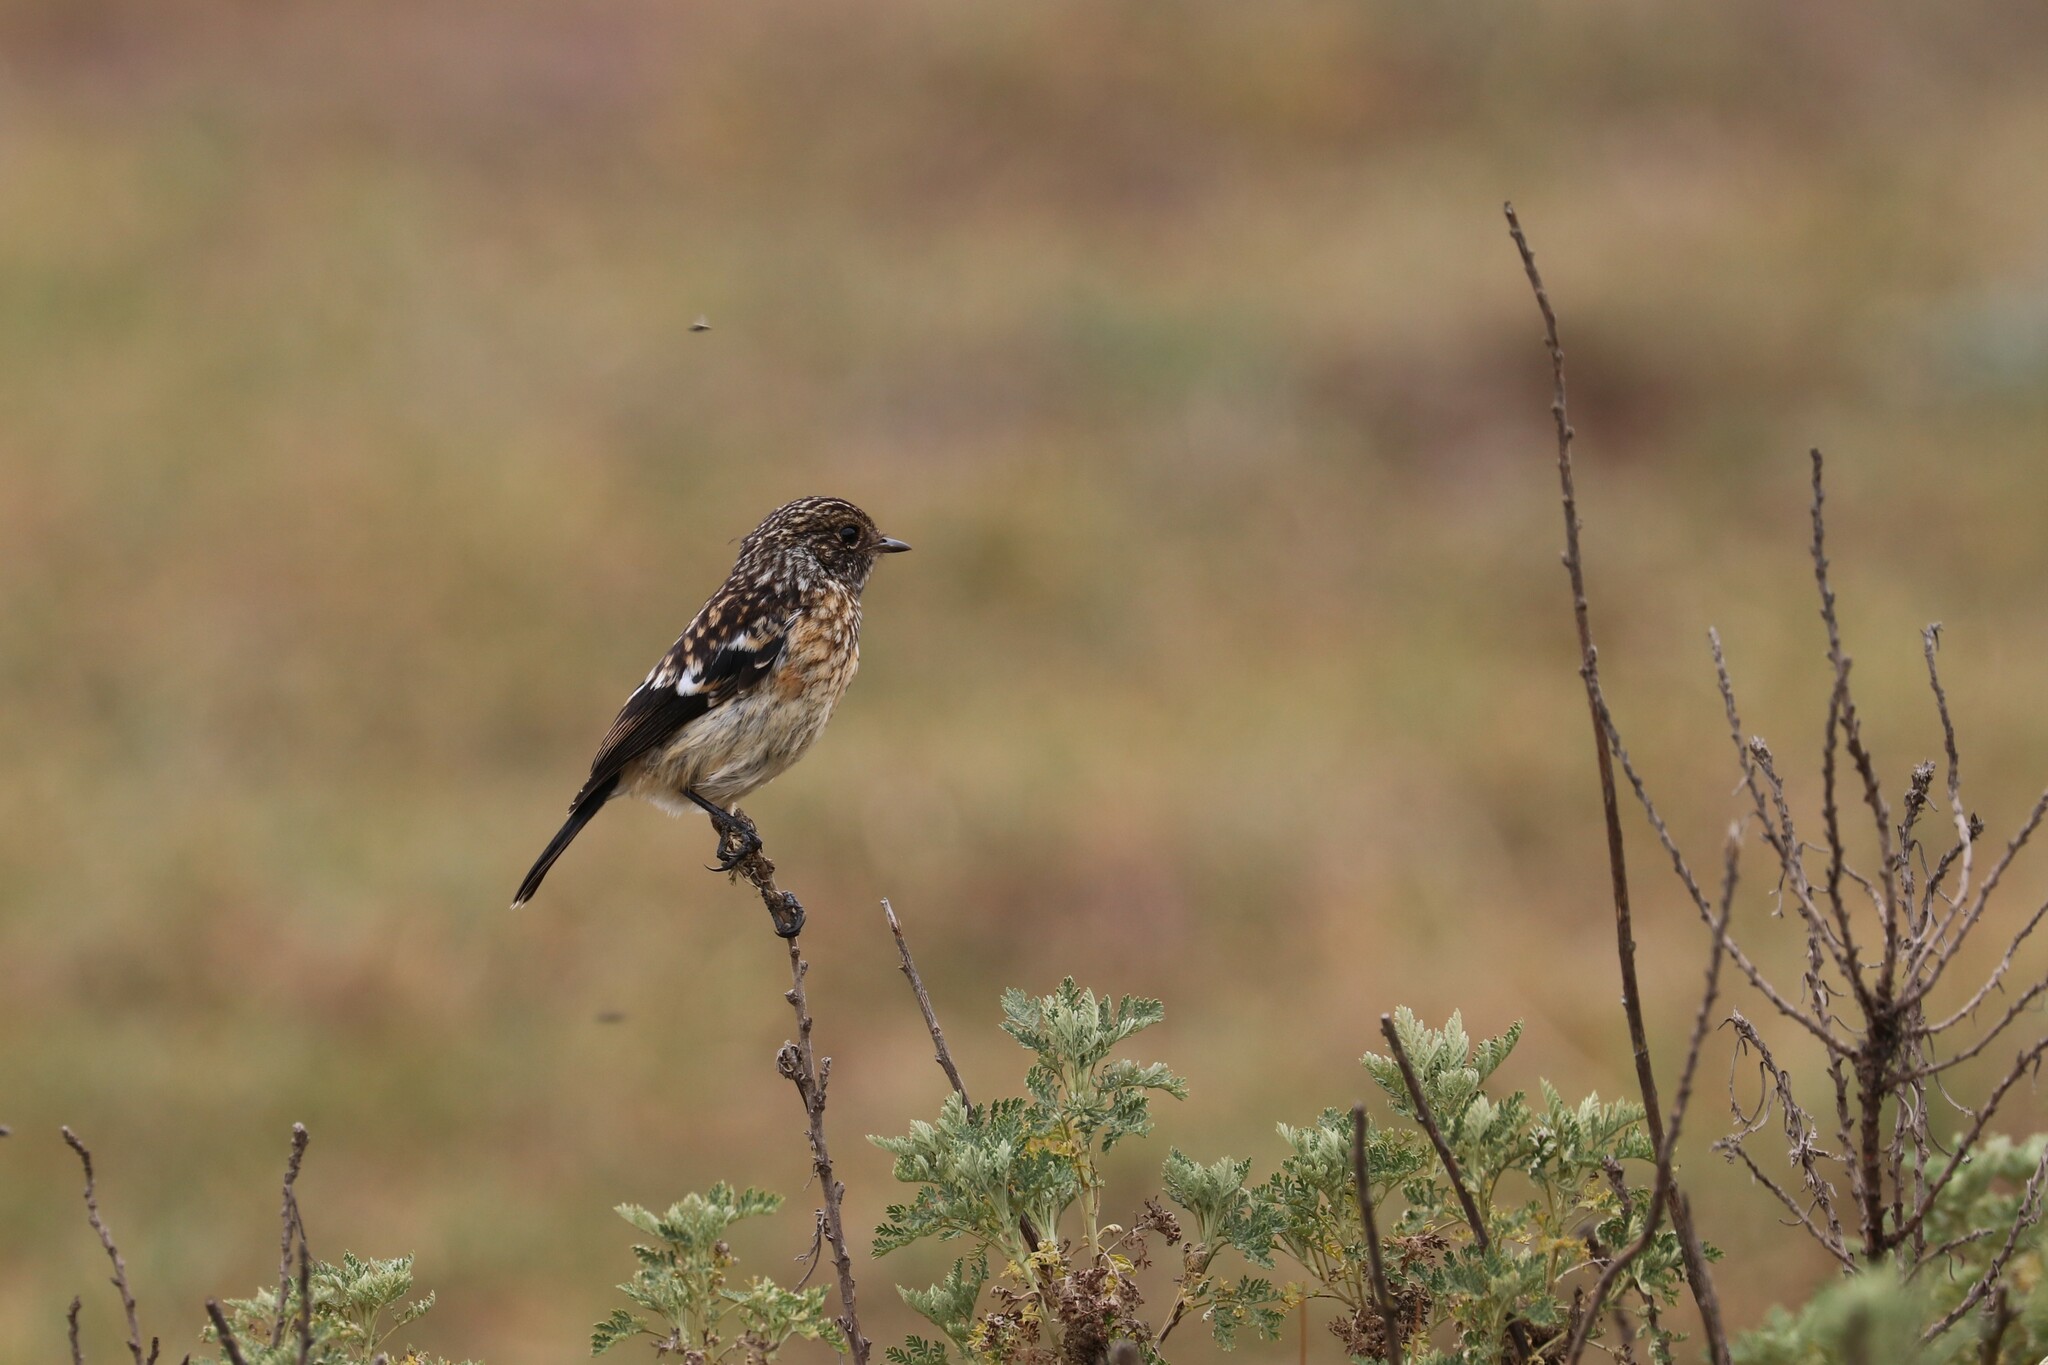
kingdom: Animalia
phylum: Chordata
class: Aves
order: Passeriformes
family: Muscicapidae
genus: Saxicola
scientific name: Saxicola torquatus
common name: African stonechat
